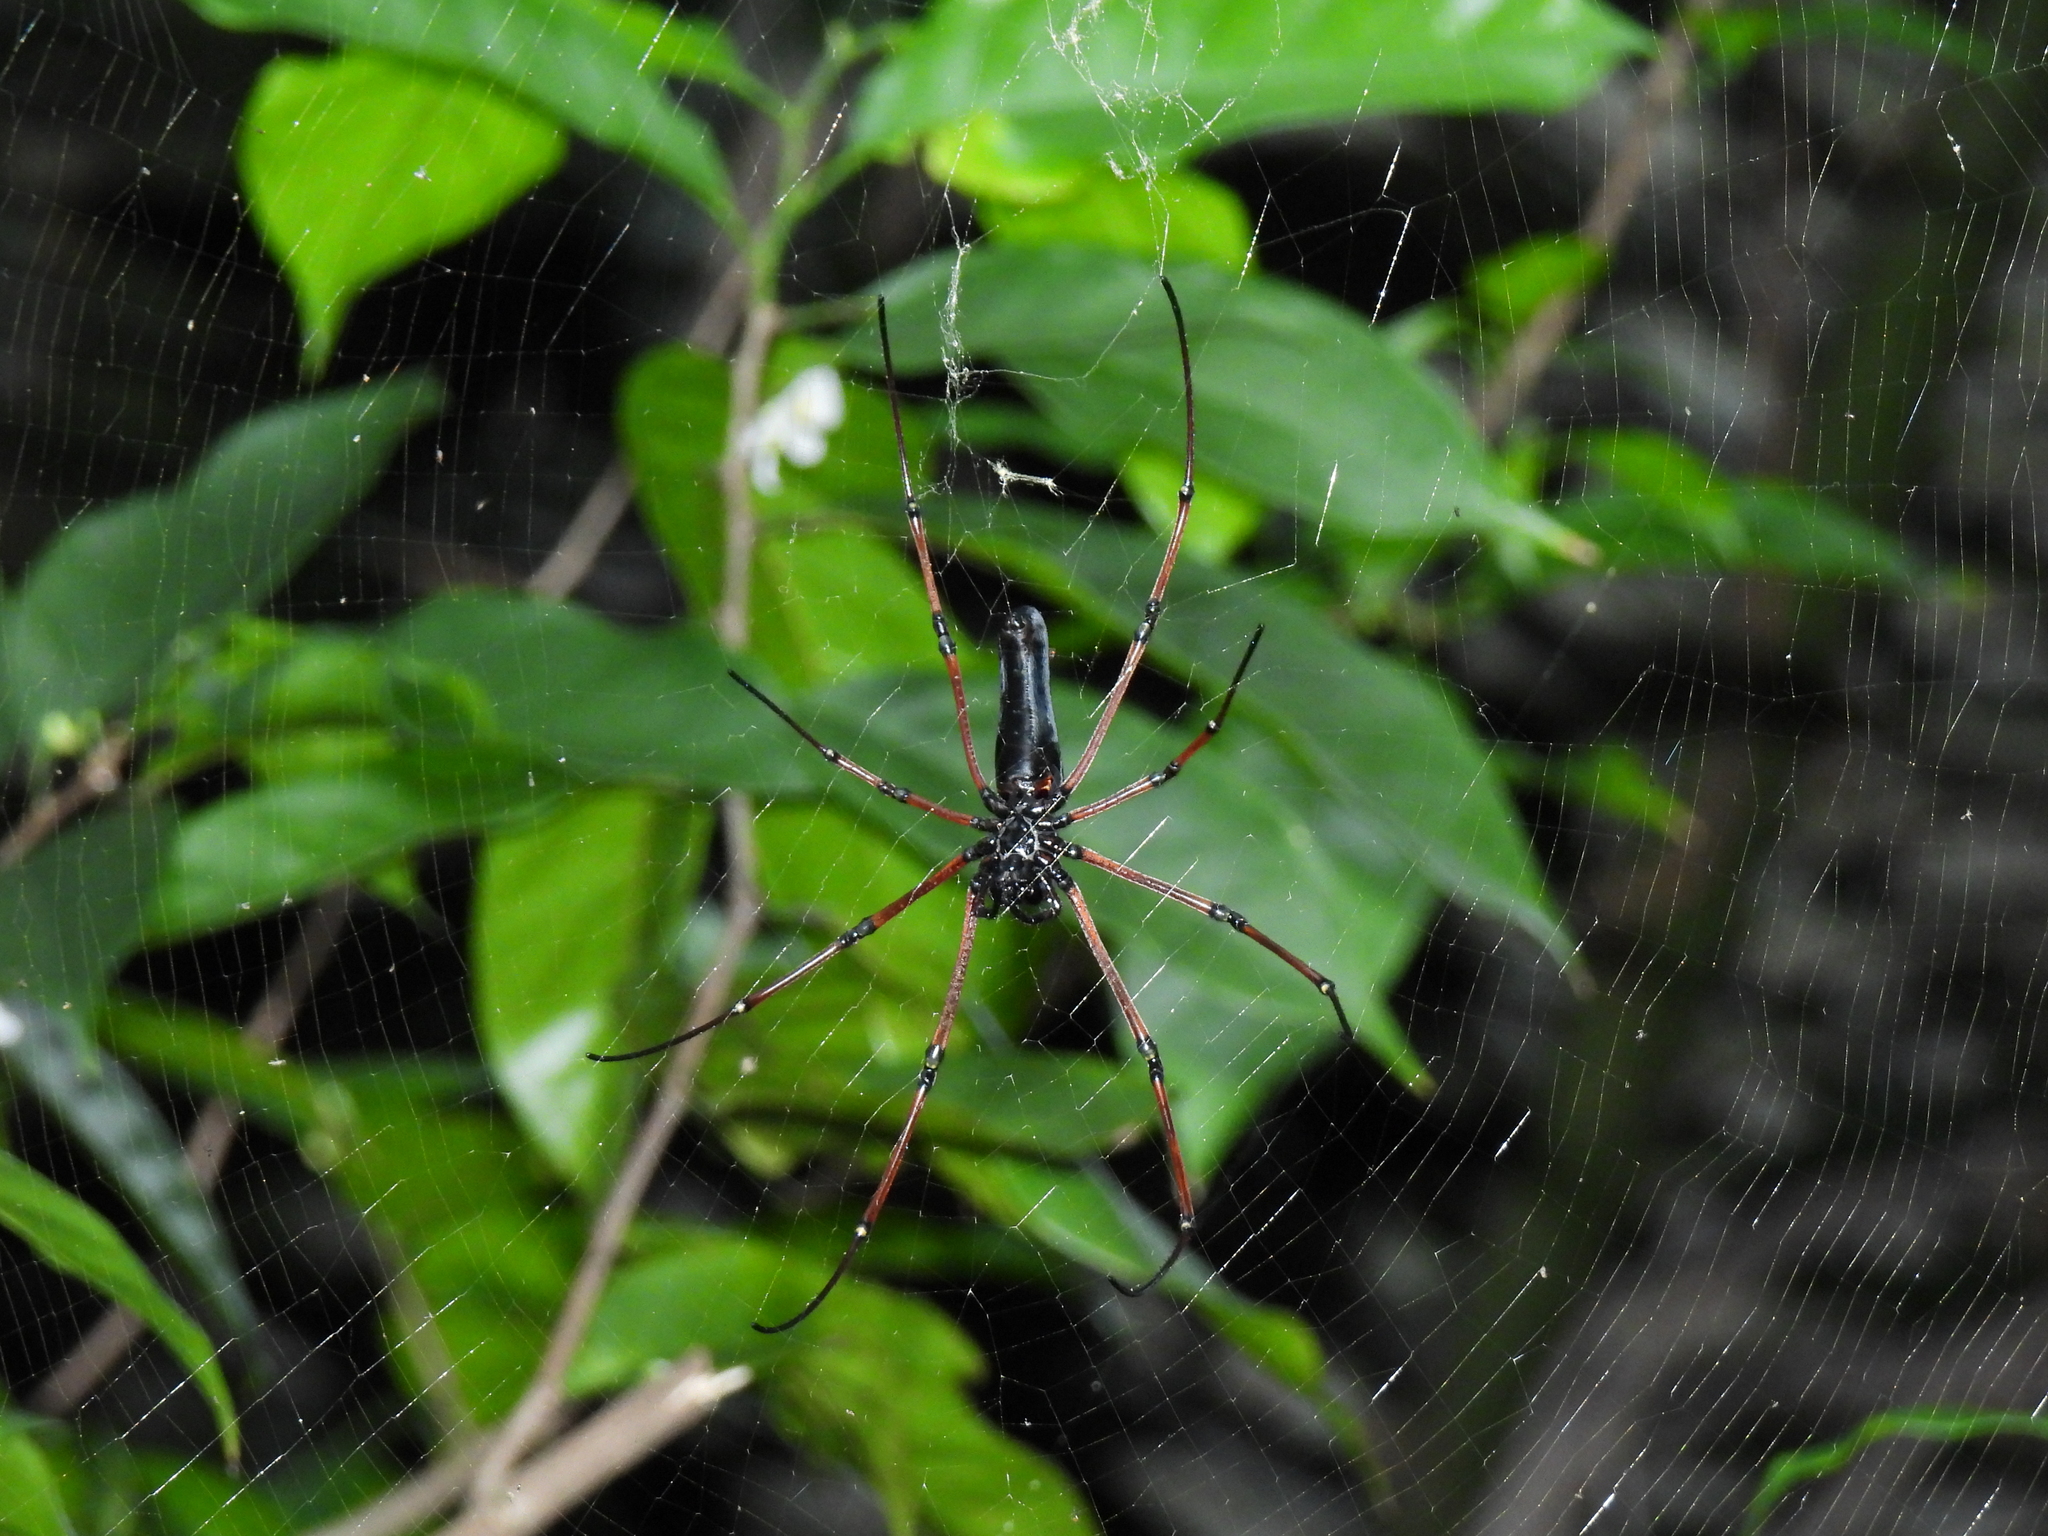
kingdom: Animalia
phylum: Arthropoda
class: Arachnida
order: Araneae
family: Araneidae
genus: Nephila
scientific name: Nephila kuhli
